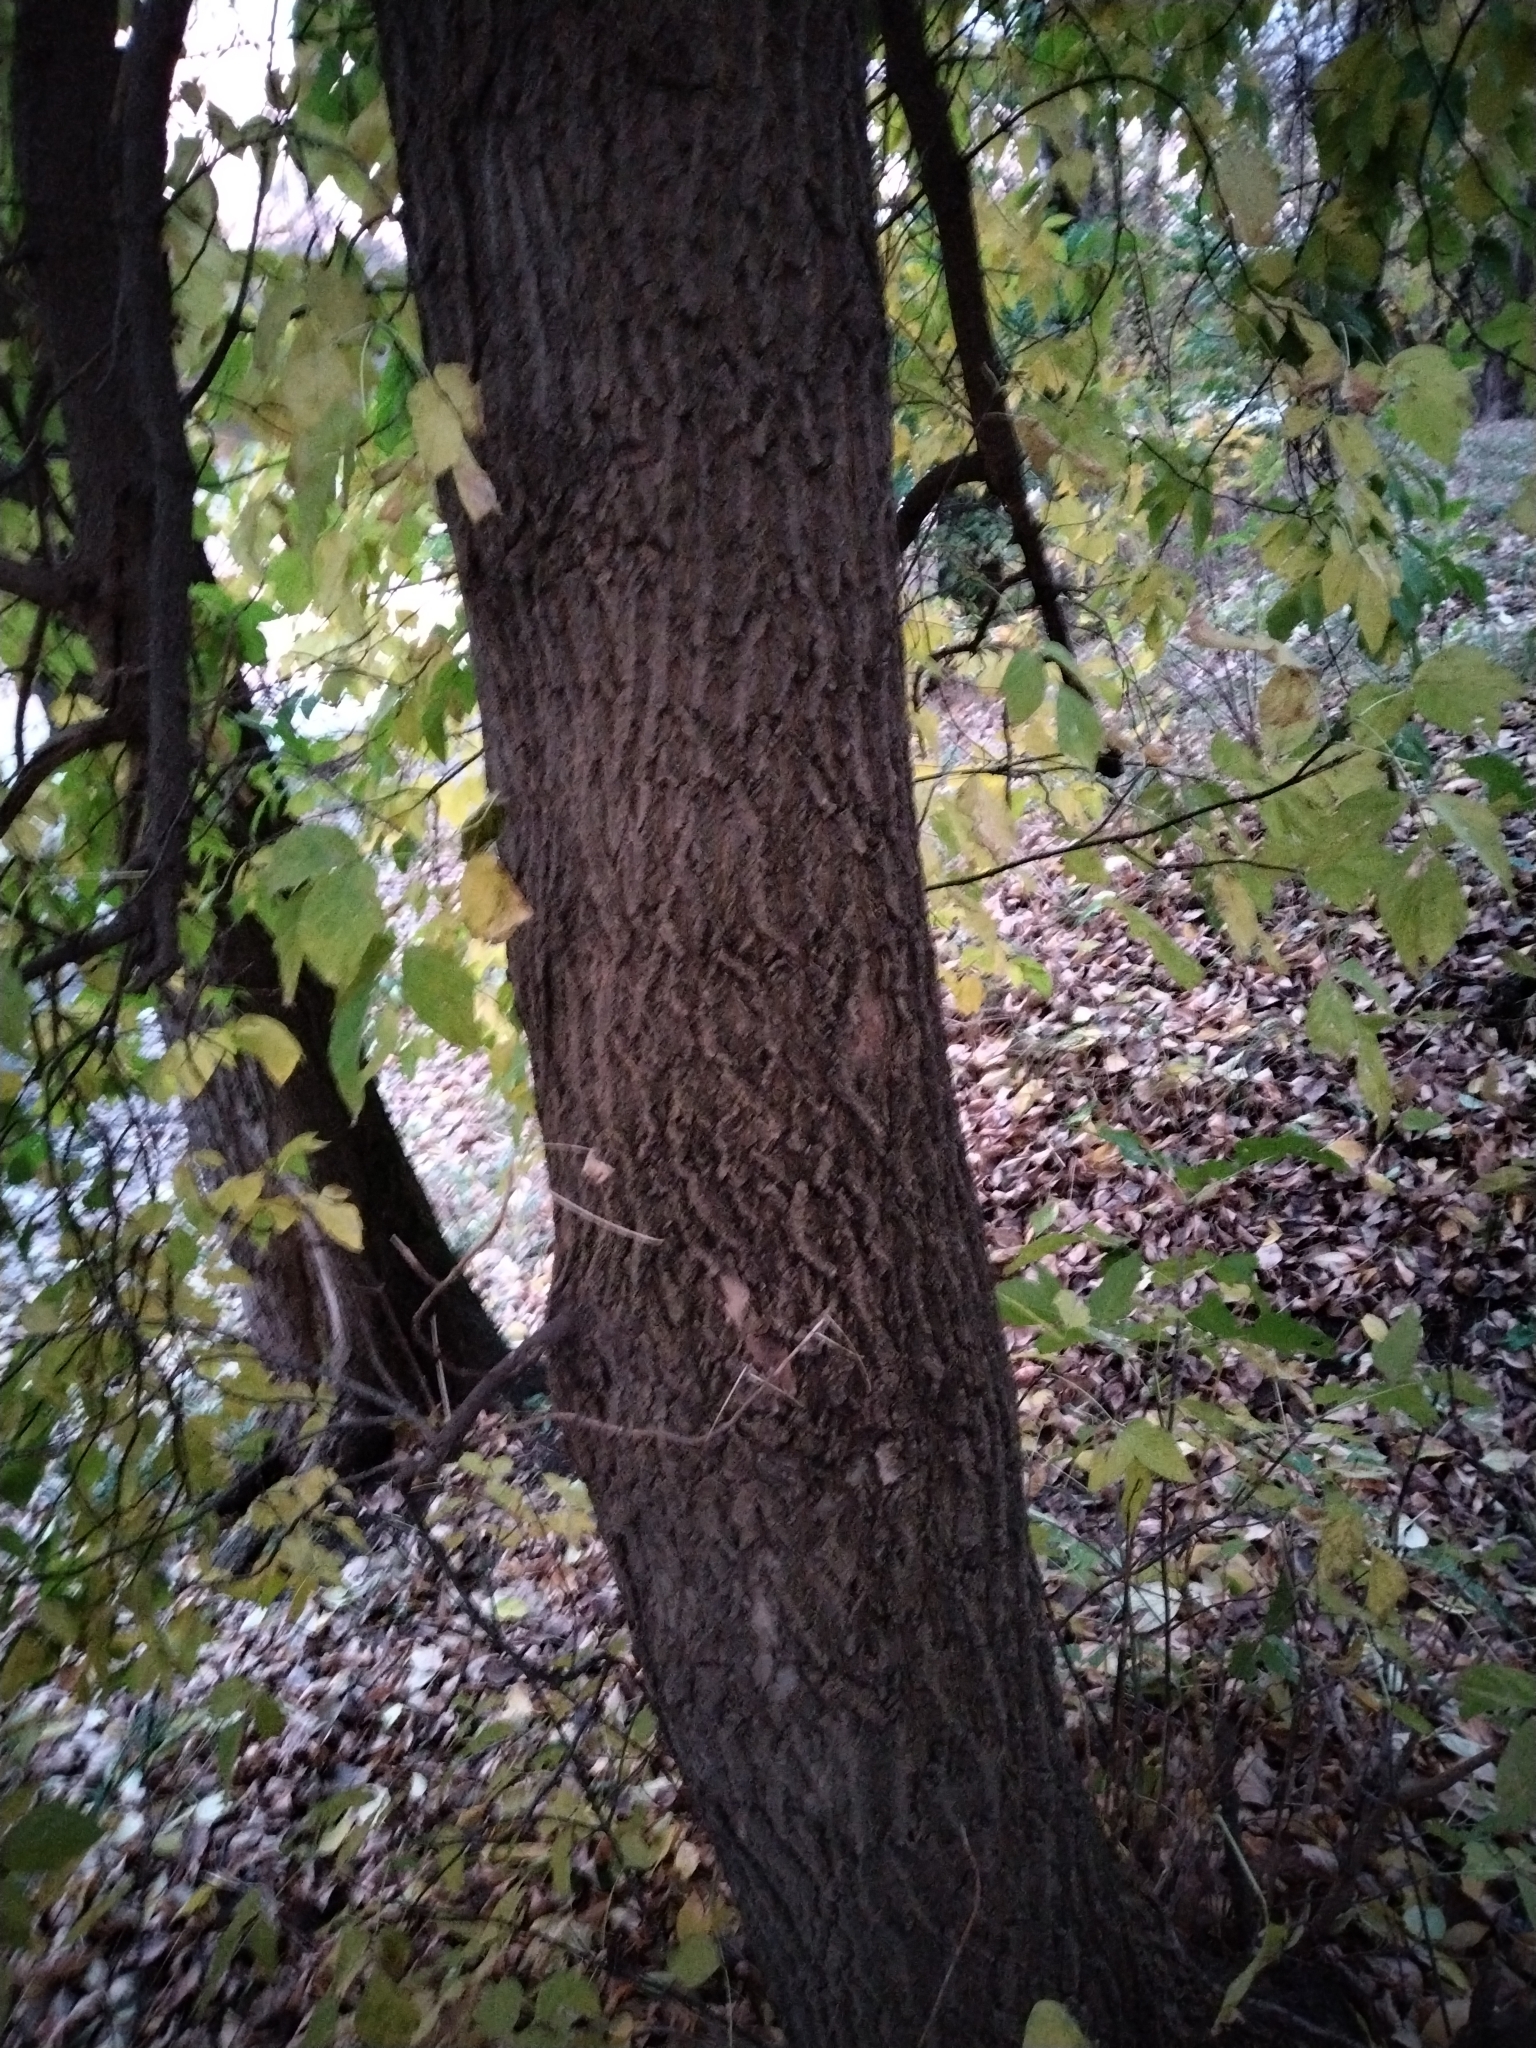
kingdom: Plantae
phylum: Tracheophyta
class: Magnoliopsida
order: Sapindales
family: Sapindaceae
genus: Acer
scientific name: Acer negundo
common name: Ashleaf maple
